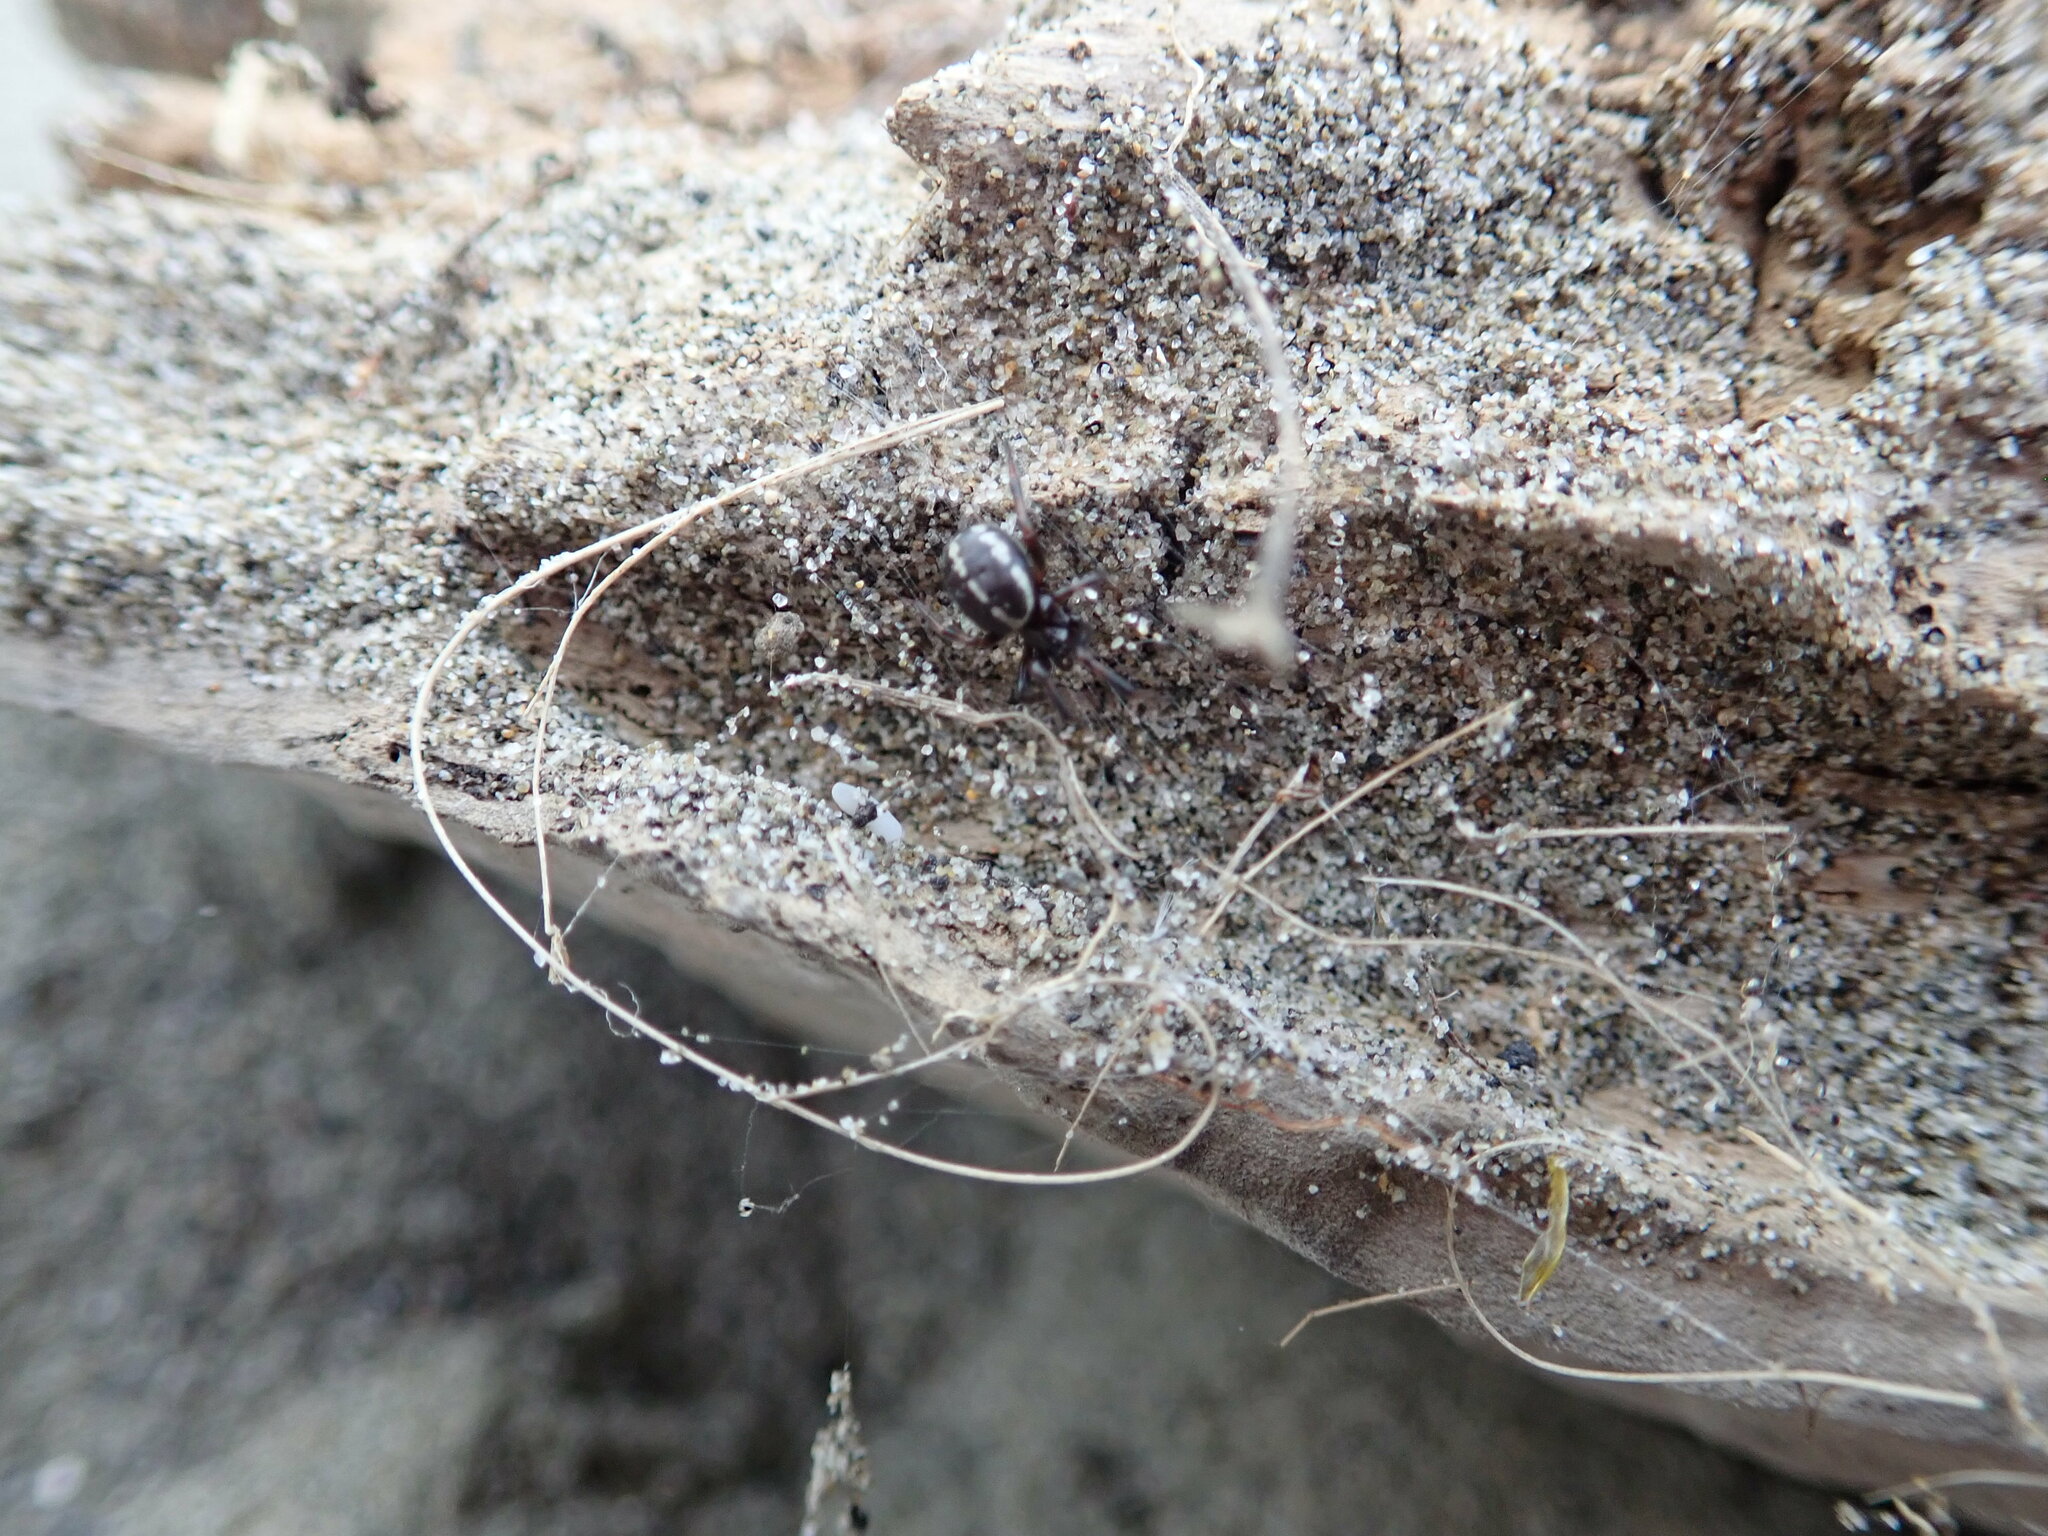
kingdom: Animalia
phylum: Arthropoda
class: Arachnida
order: Araneae
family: Theridiidae
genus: Steatoda
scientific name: Steatoda lepida
